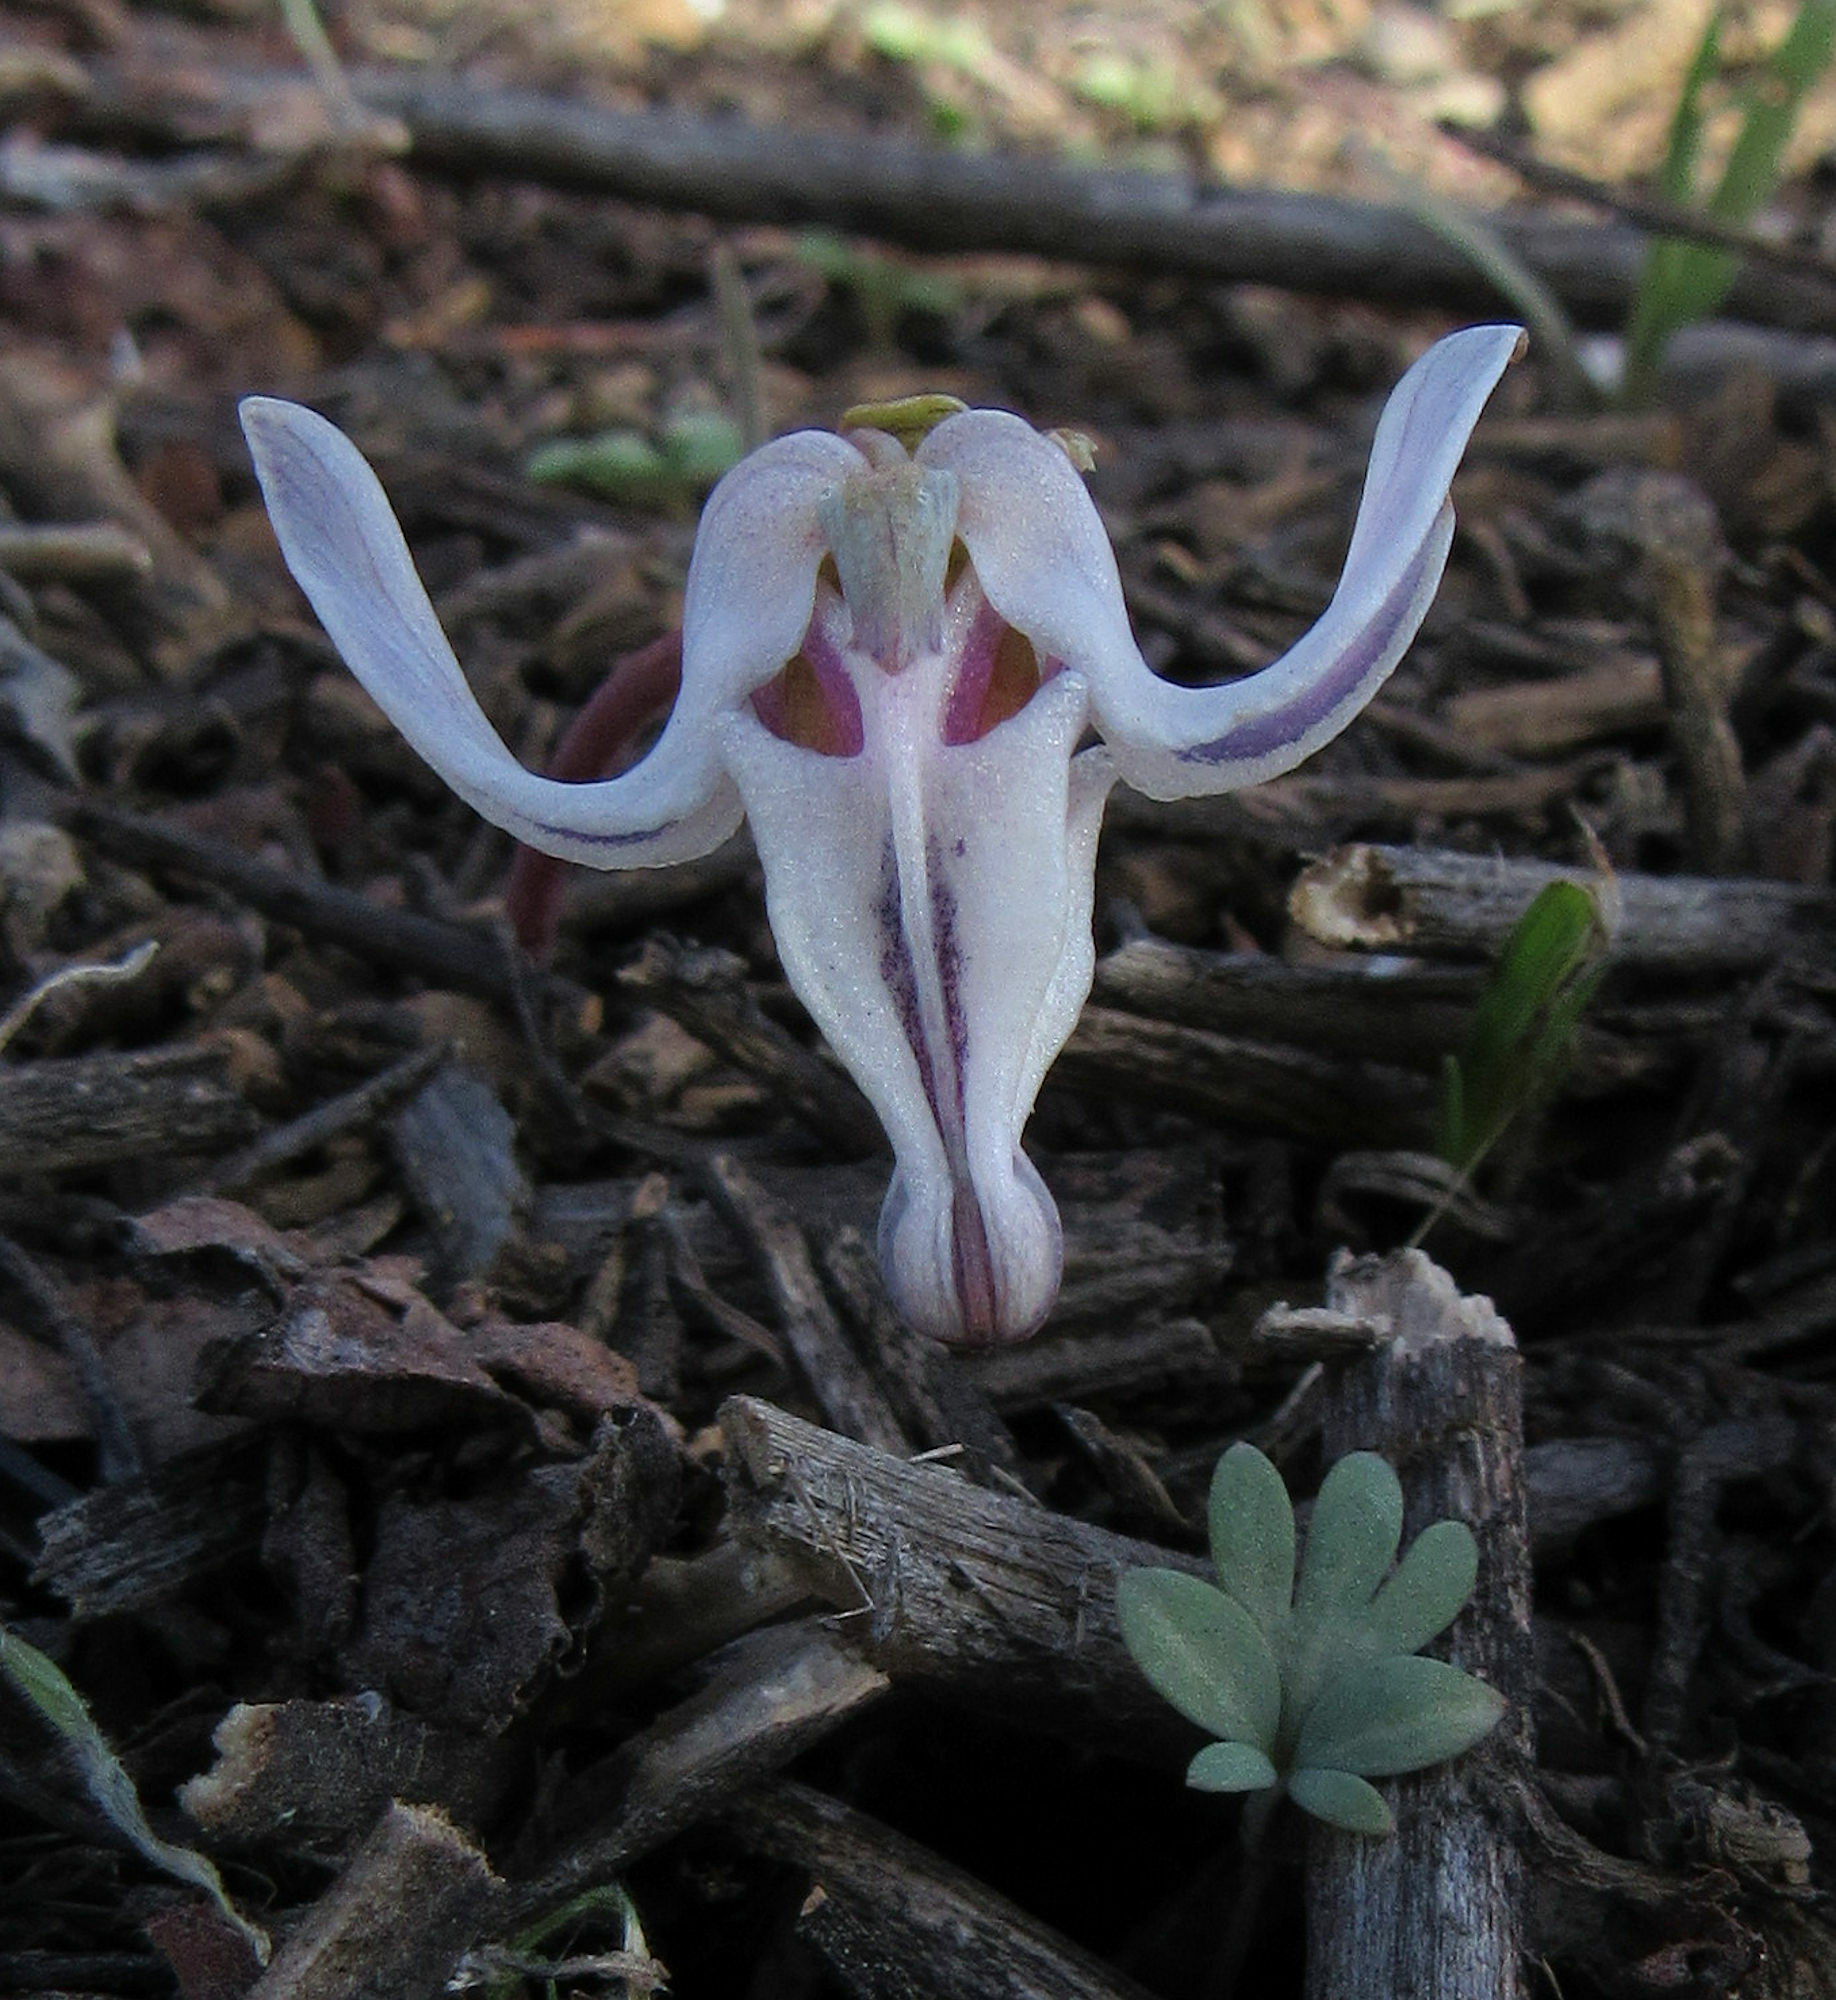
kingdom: Plantae
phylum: Tracheophyta
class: Magnoliopsida
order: Ranunculales
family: Papaveraceae
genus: Dicentra
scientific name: Dicentra uniflora
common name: Steer's-head
